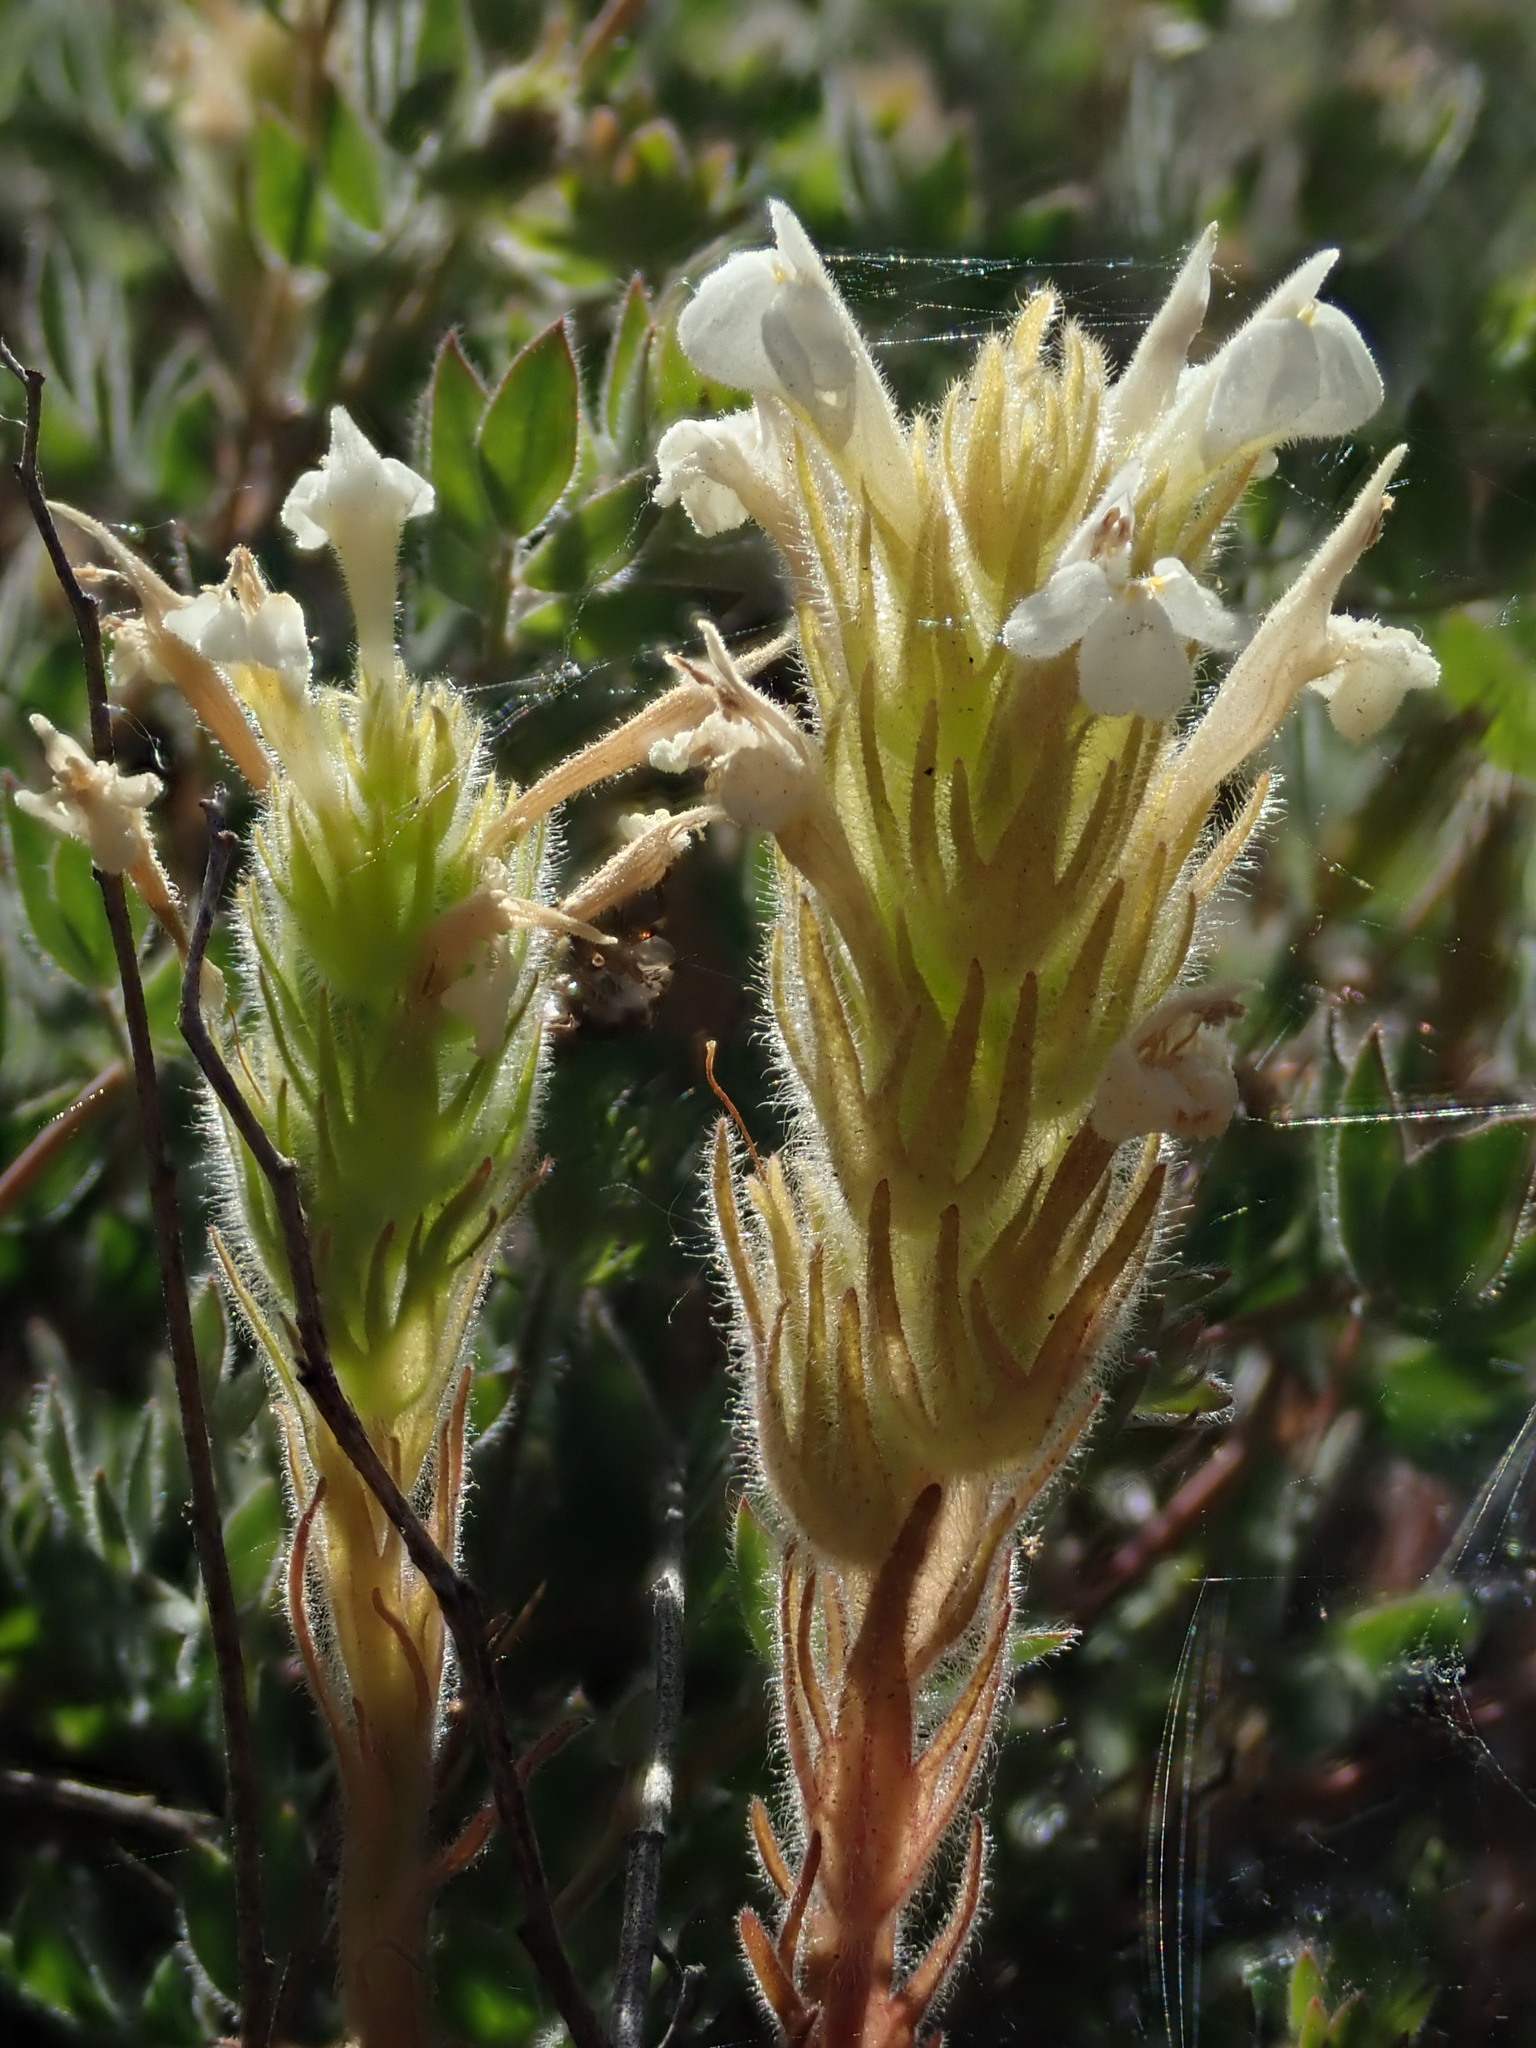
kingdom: Plantae
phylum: Tracheophyta
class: Magnoliopsida
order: Lamiales
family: Orobanchaceae
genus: Castilleja
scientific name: Castilleja tenuis
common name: Hairy indian paintbrush
